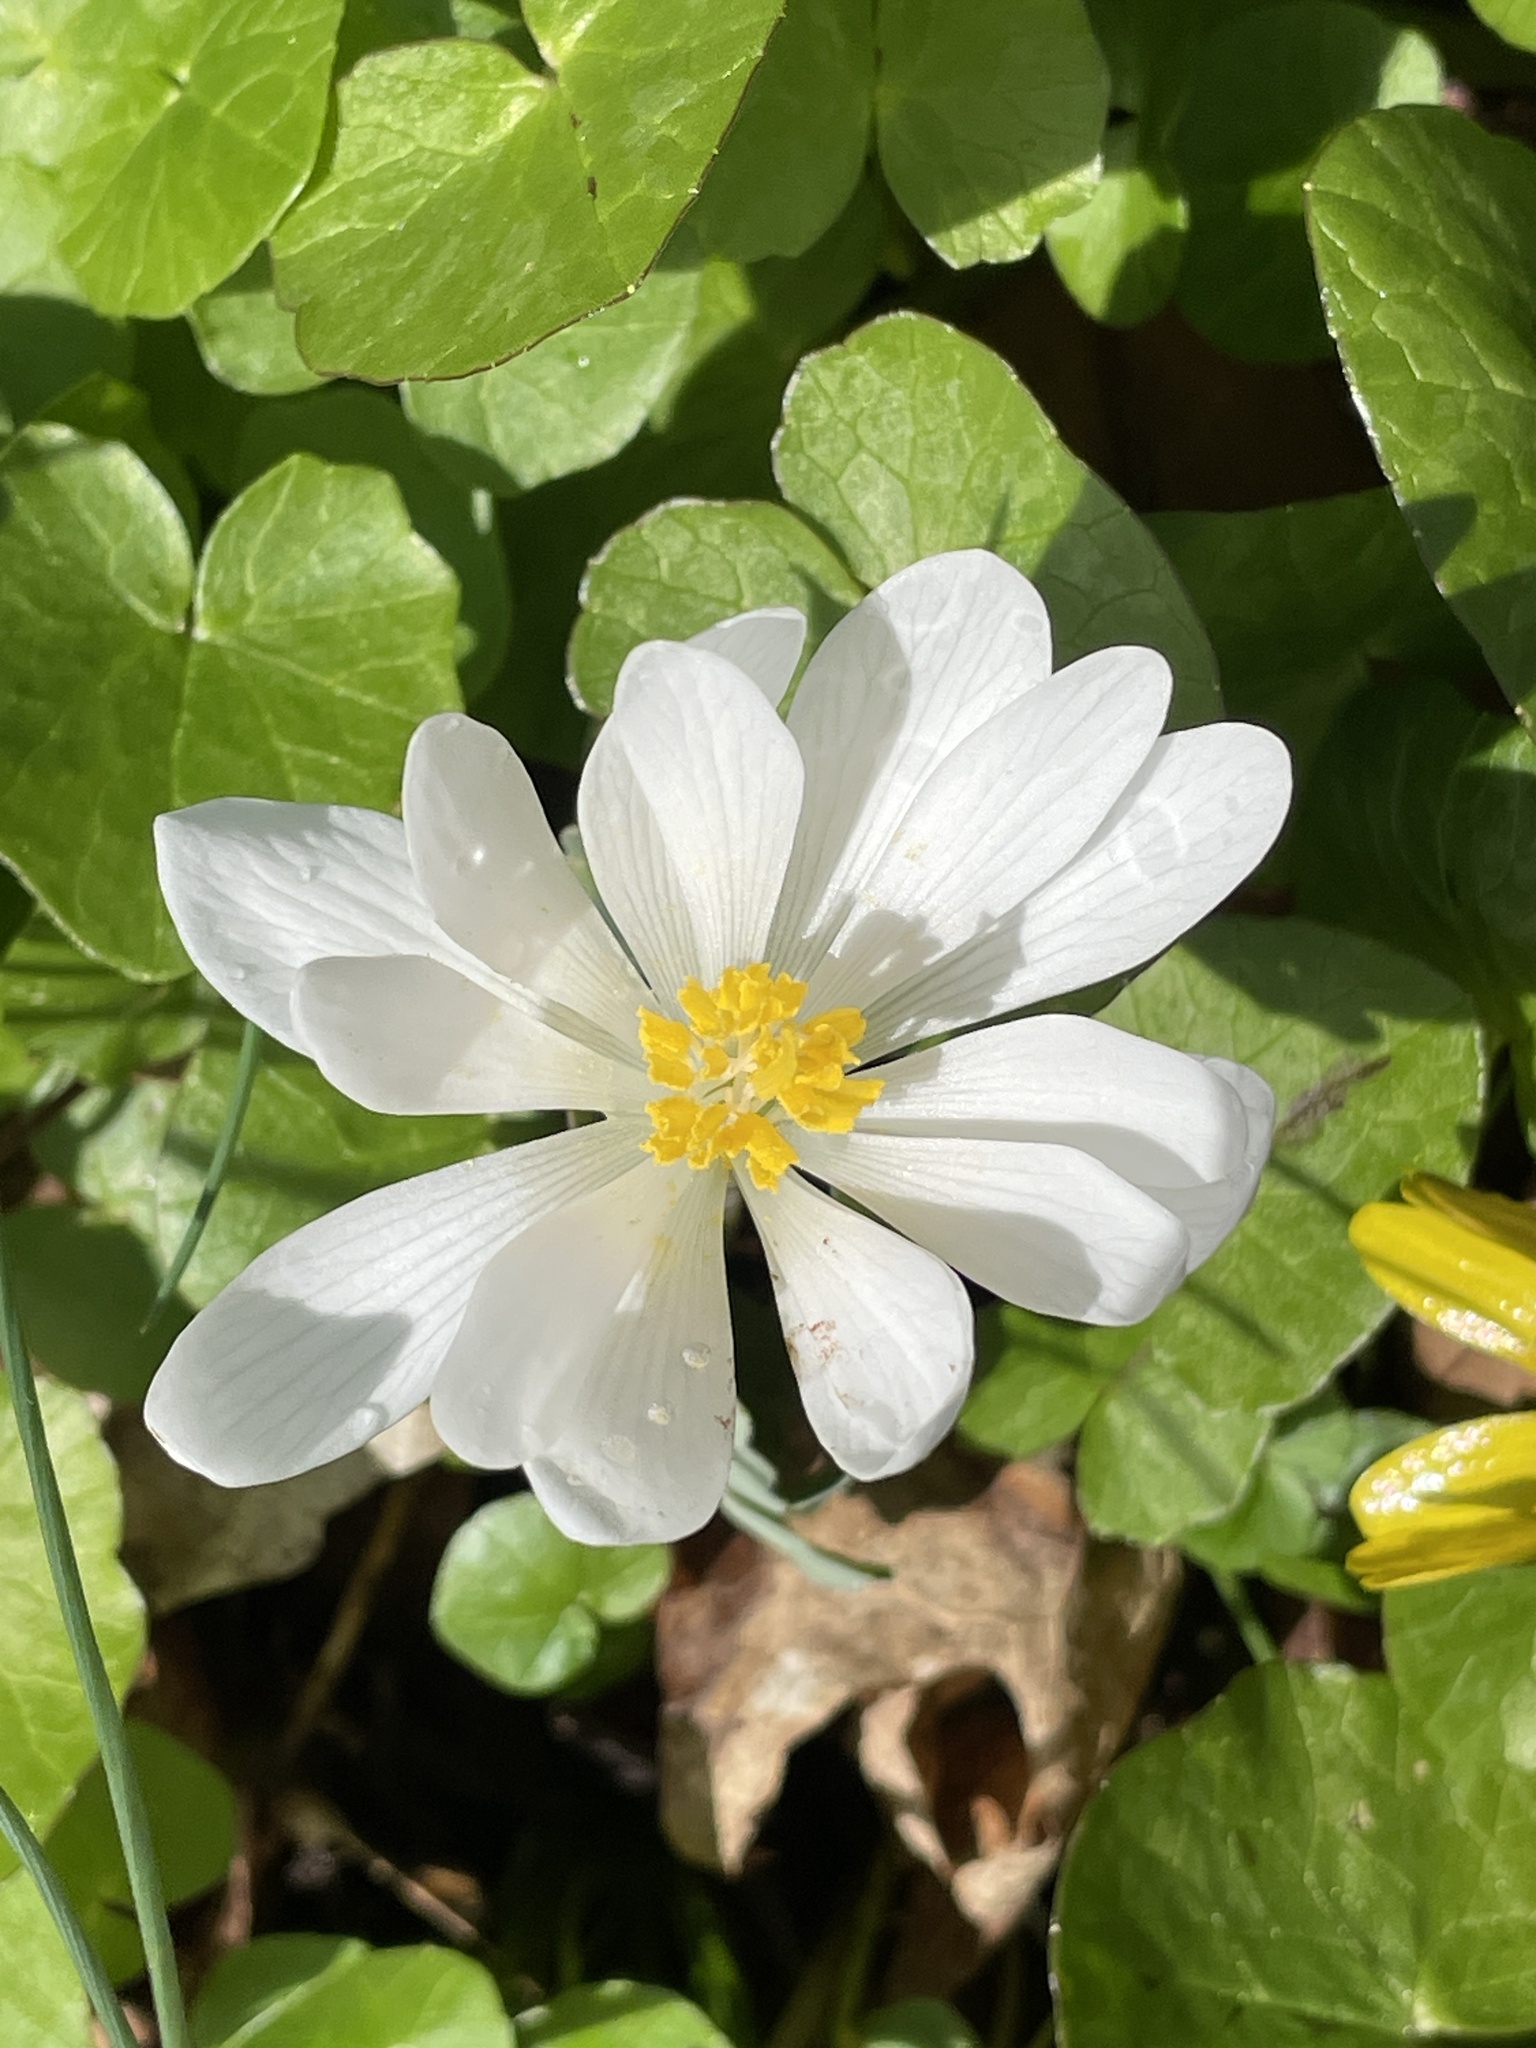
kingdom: Plantae
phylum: Tracheophyta
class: Magnoliopsida
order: Ranunculales
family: Papaveraceae
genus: Sanguinaria
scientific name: Sanguinaria canadensis
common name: Bloodroot
